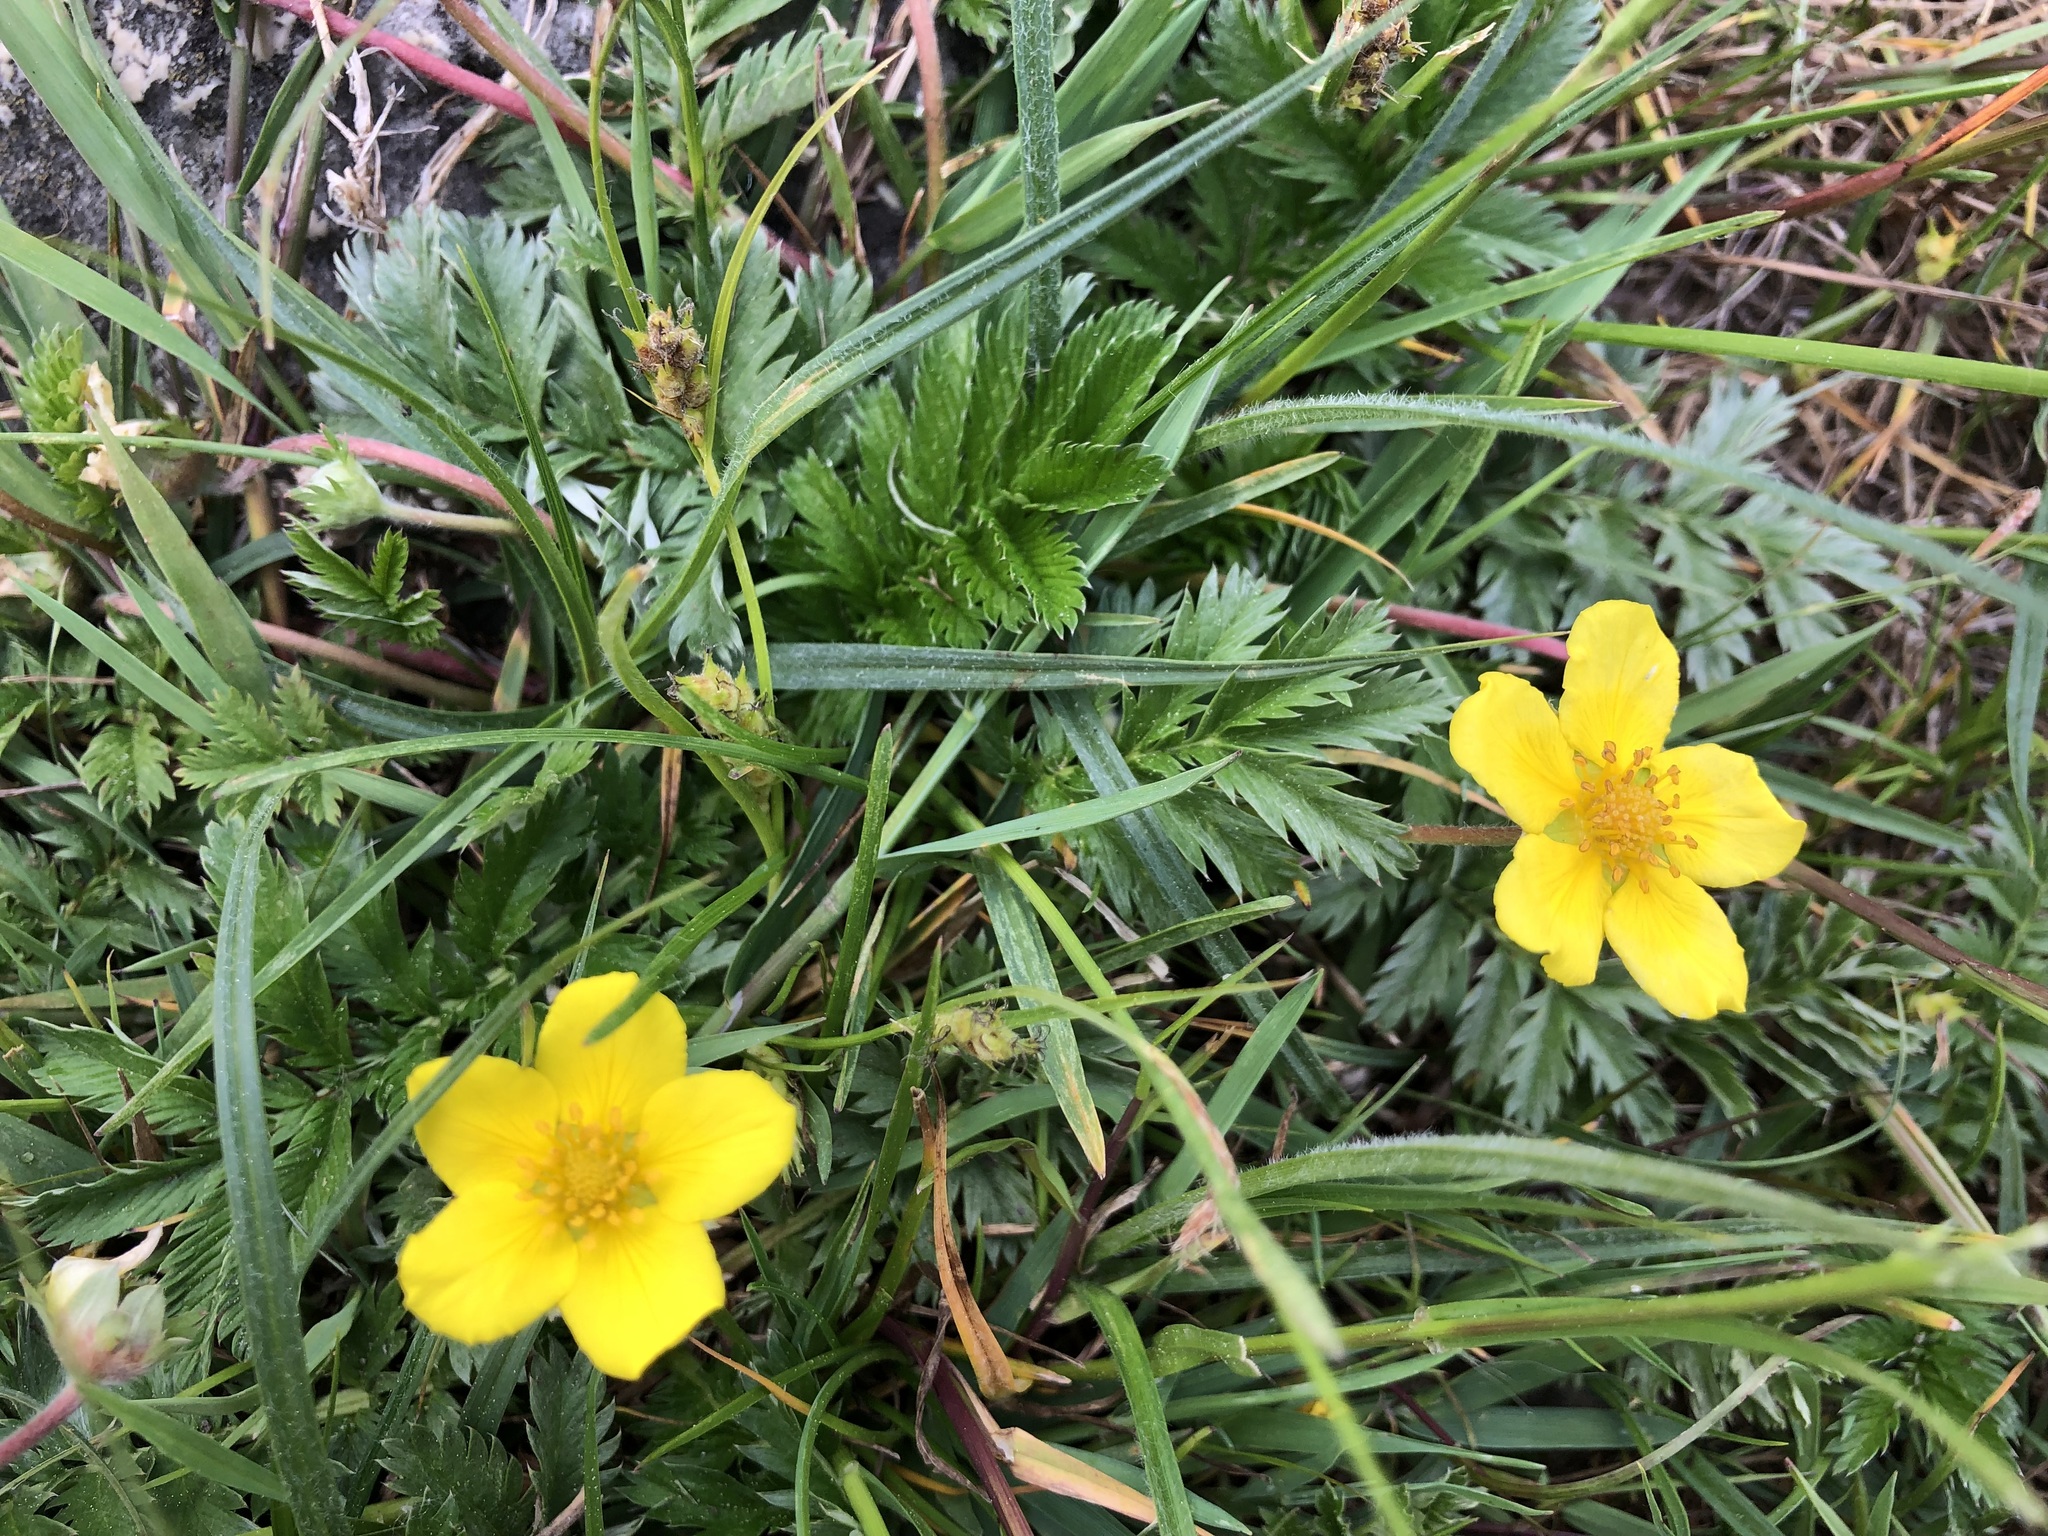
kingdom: Plantae
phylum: Tracheophyta
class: Magnoliopsida
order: Rosales
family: Rosaceae
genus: Argentina
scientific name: Argentina anserina
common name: Common silverweed
